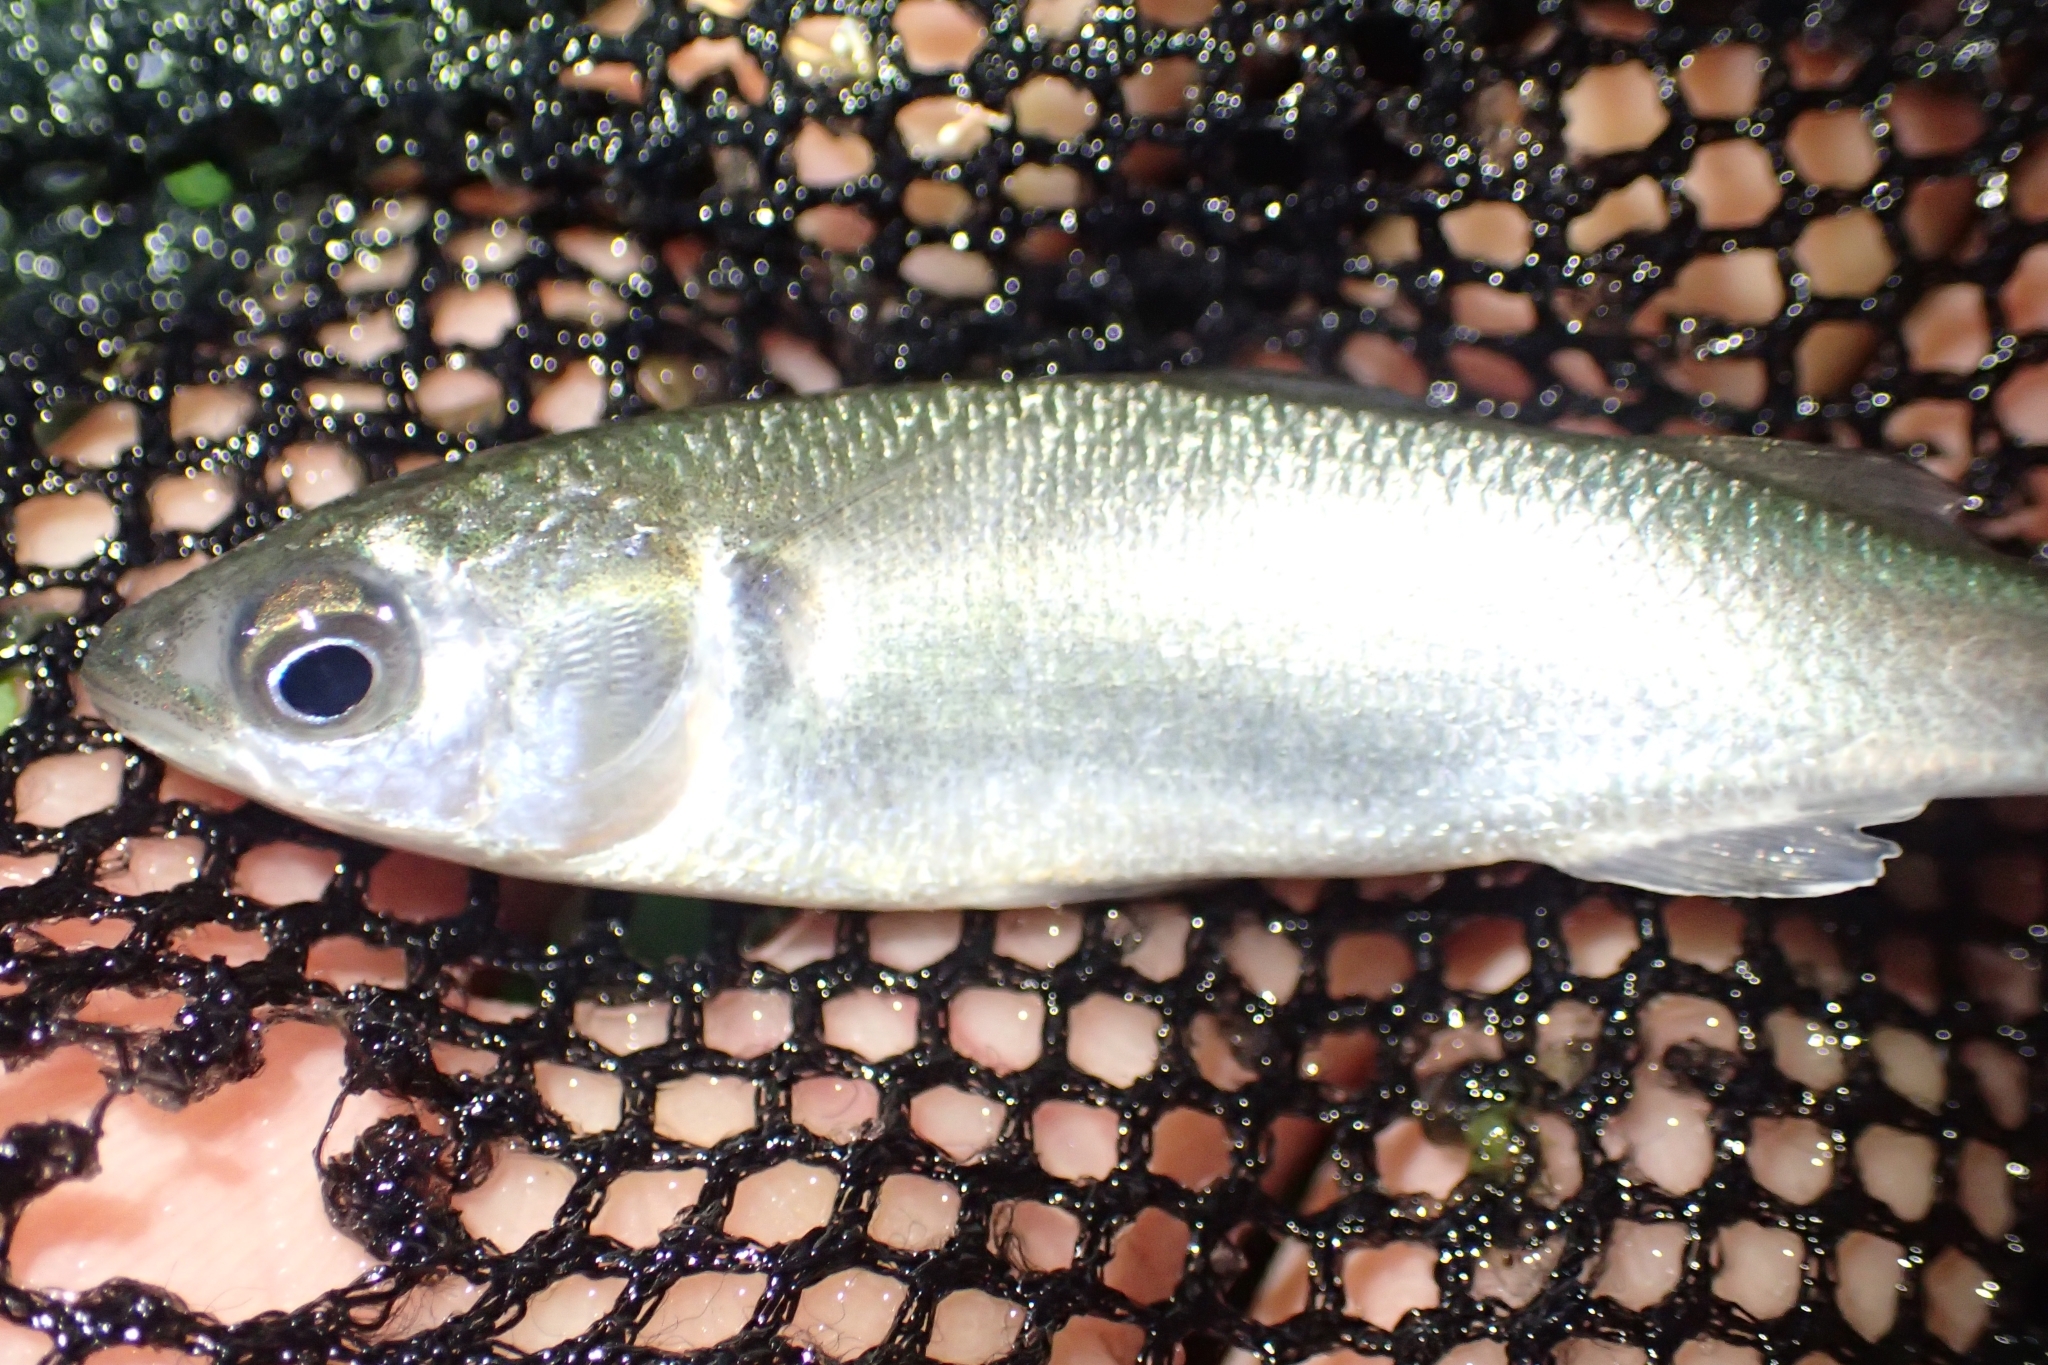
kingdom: Animalia
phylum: Chordata
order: Mugiliformes
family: Mugilidae
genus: Mugil
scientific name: Mugil cephalus
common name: Grey mullet
